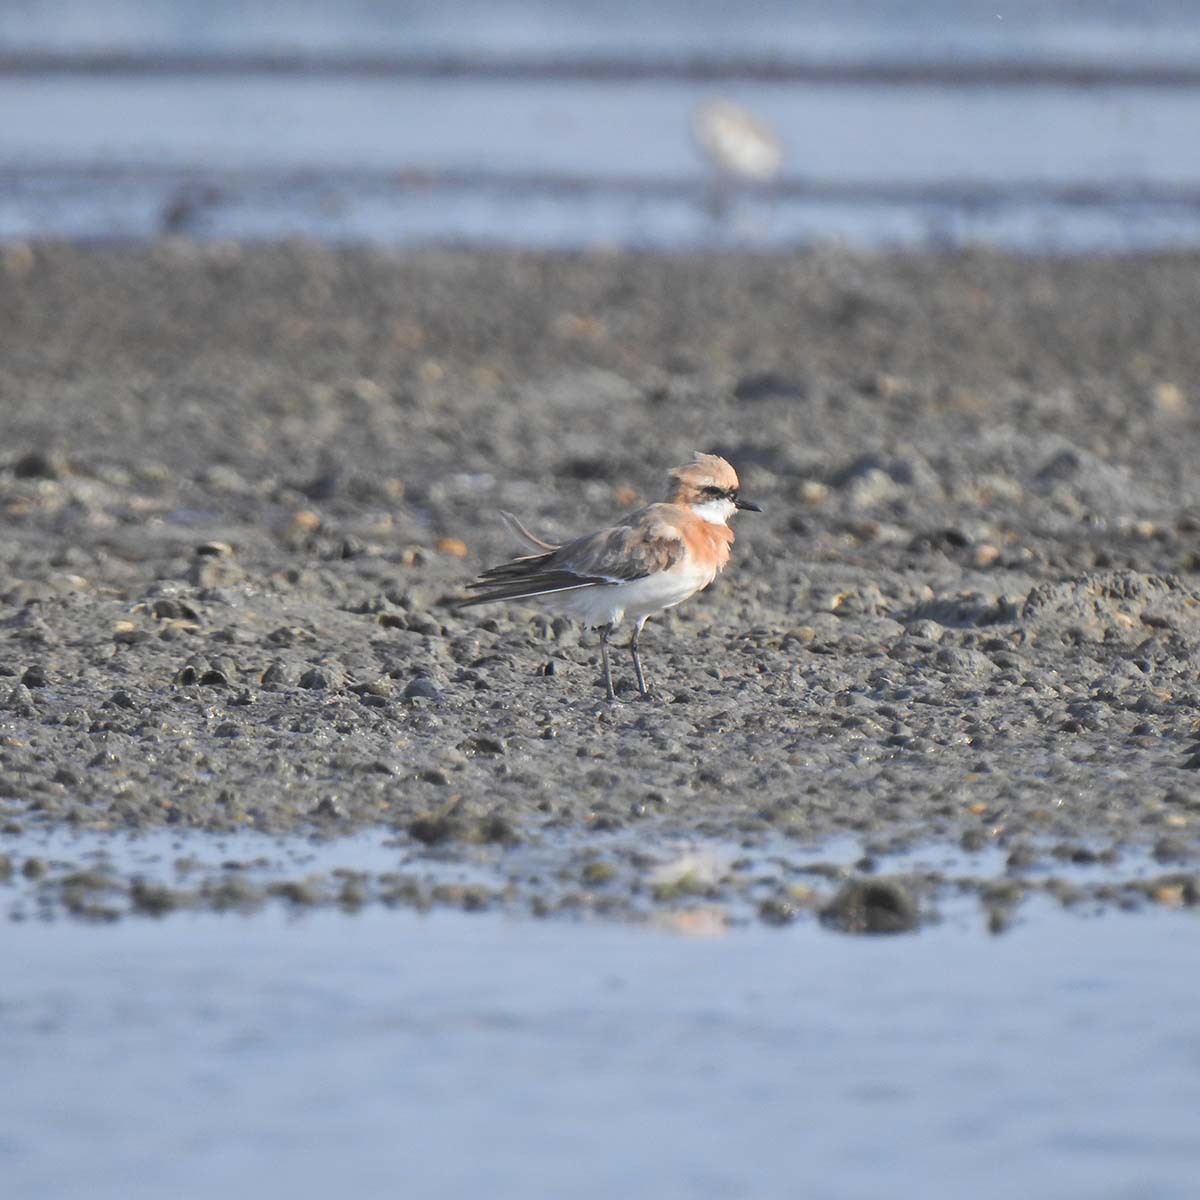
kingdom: Animalia
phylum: Chordata
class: Aves
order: Charadriiformes
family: Charadriidae
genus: Anarhynchus
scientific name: Anarhynchus
